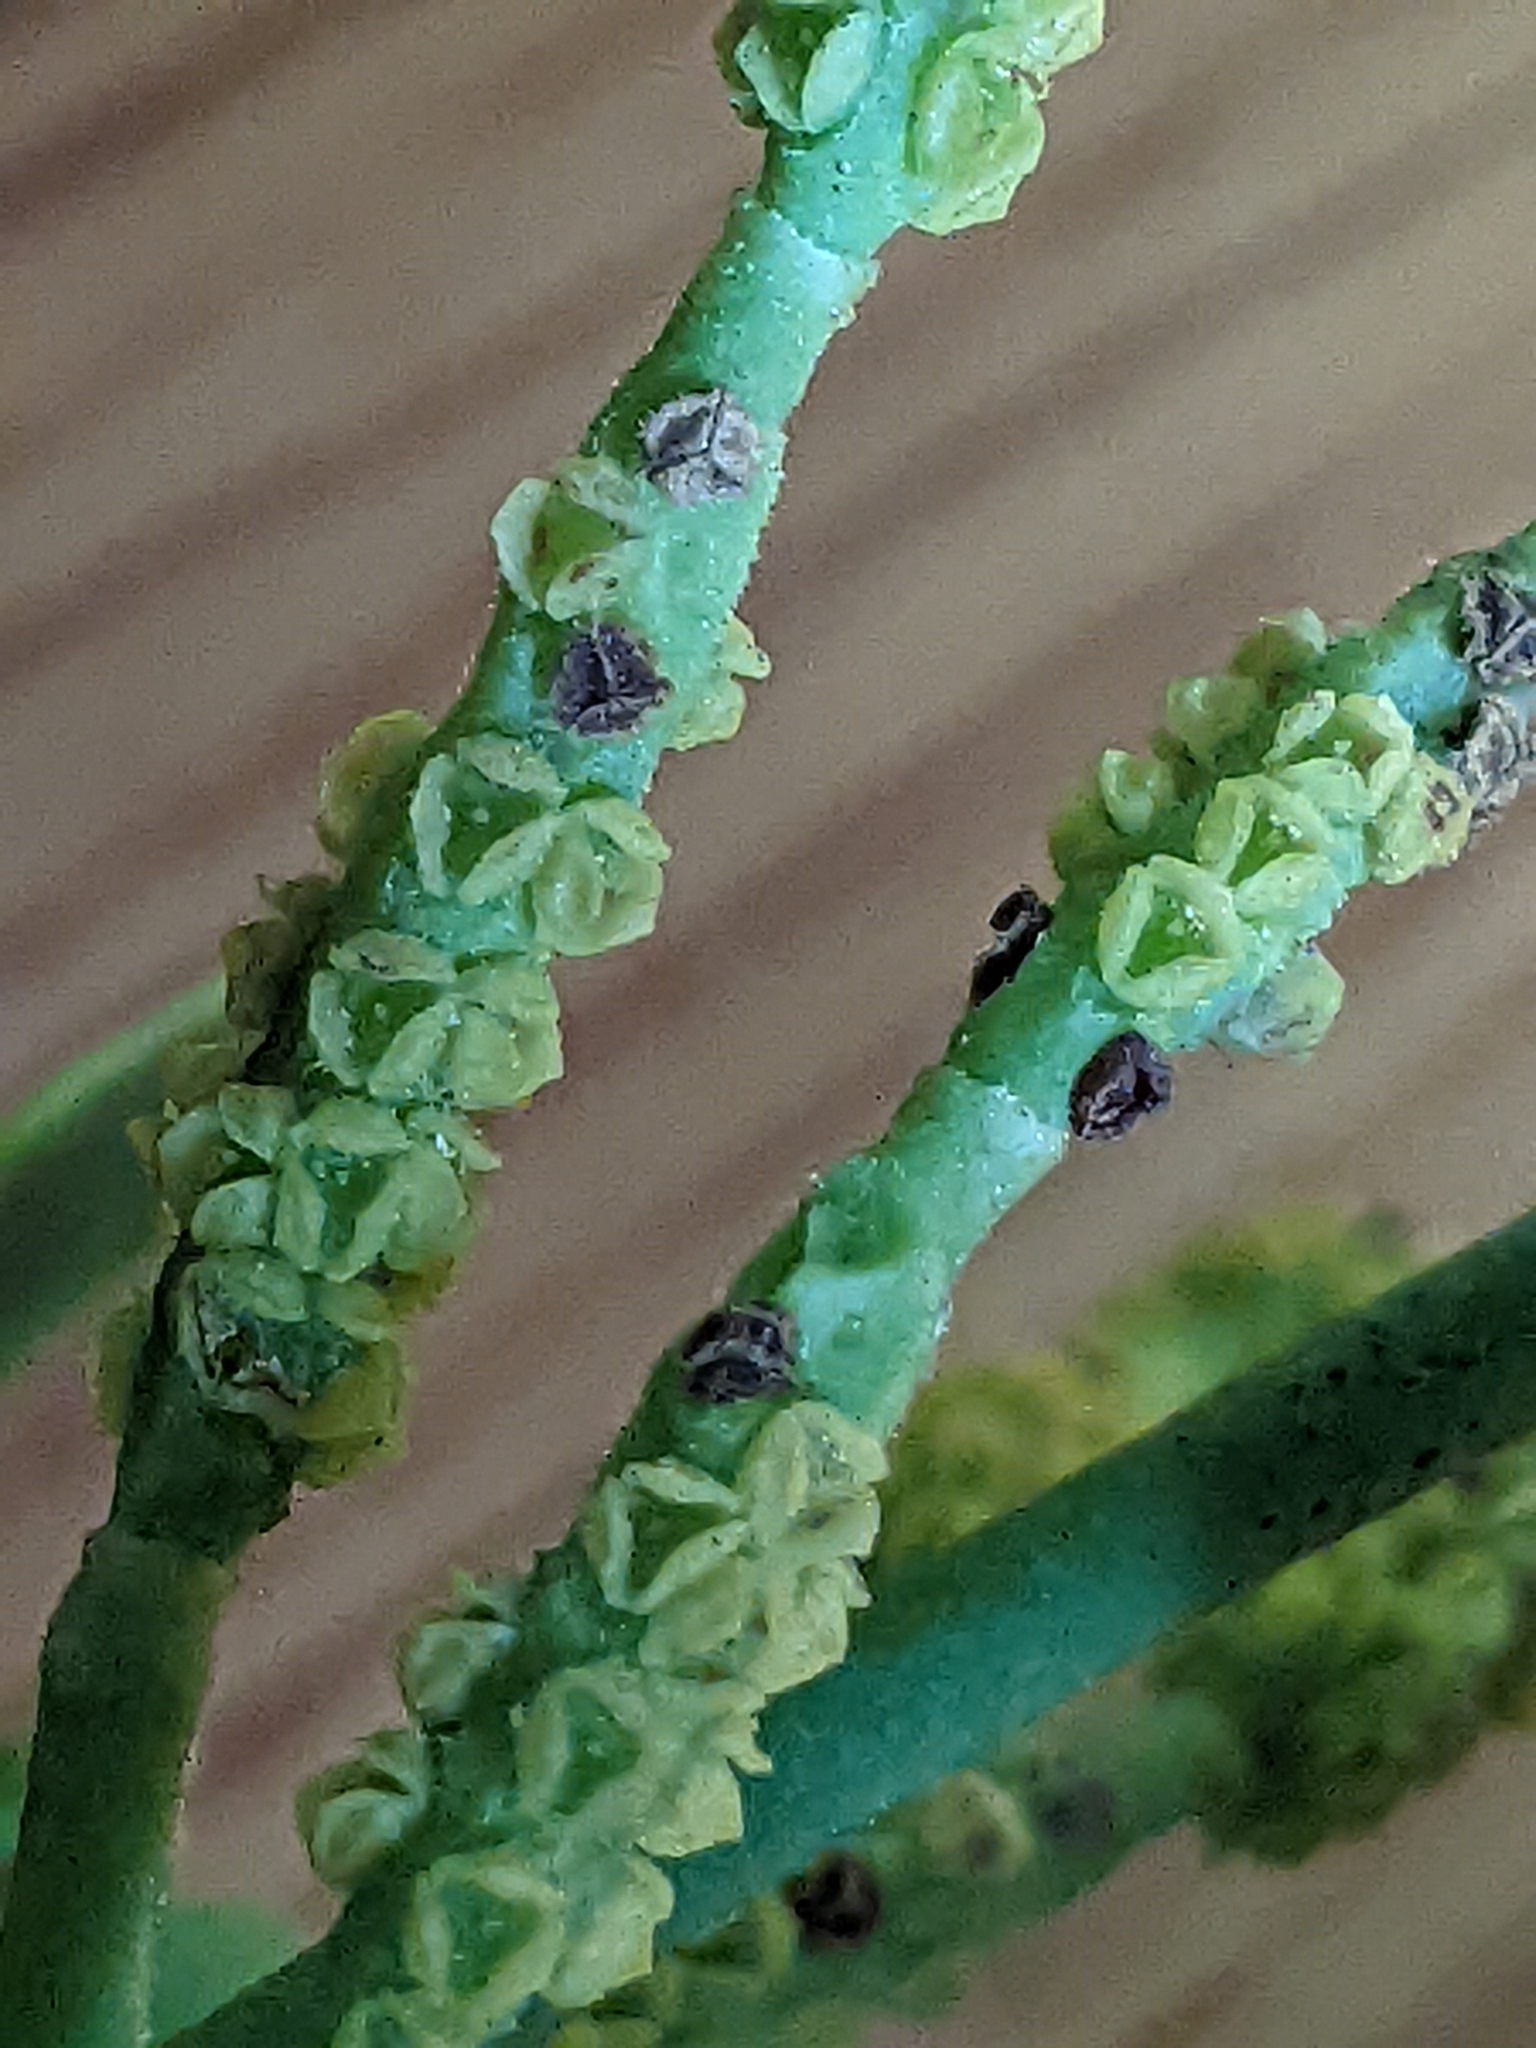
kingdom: Plantae
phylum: Tracheophyta
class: Magnoliopsida
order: Santalales
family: Viscaceae
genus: Phoradendron
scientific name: Phoradendron leucarpum
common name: Pacific mistletoe
